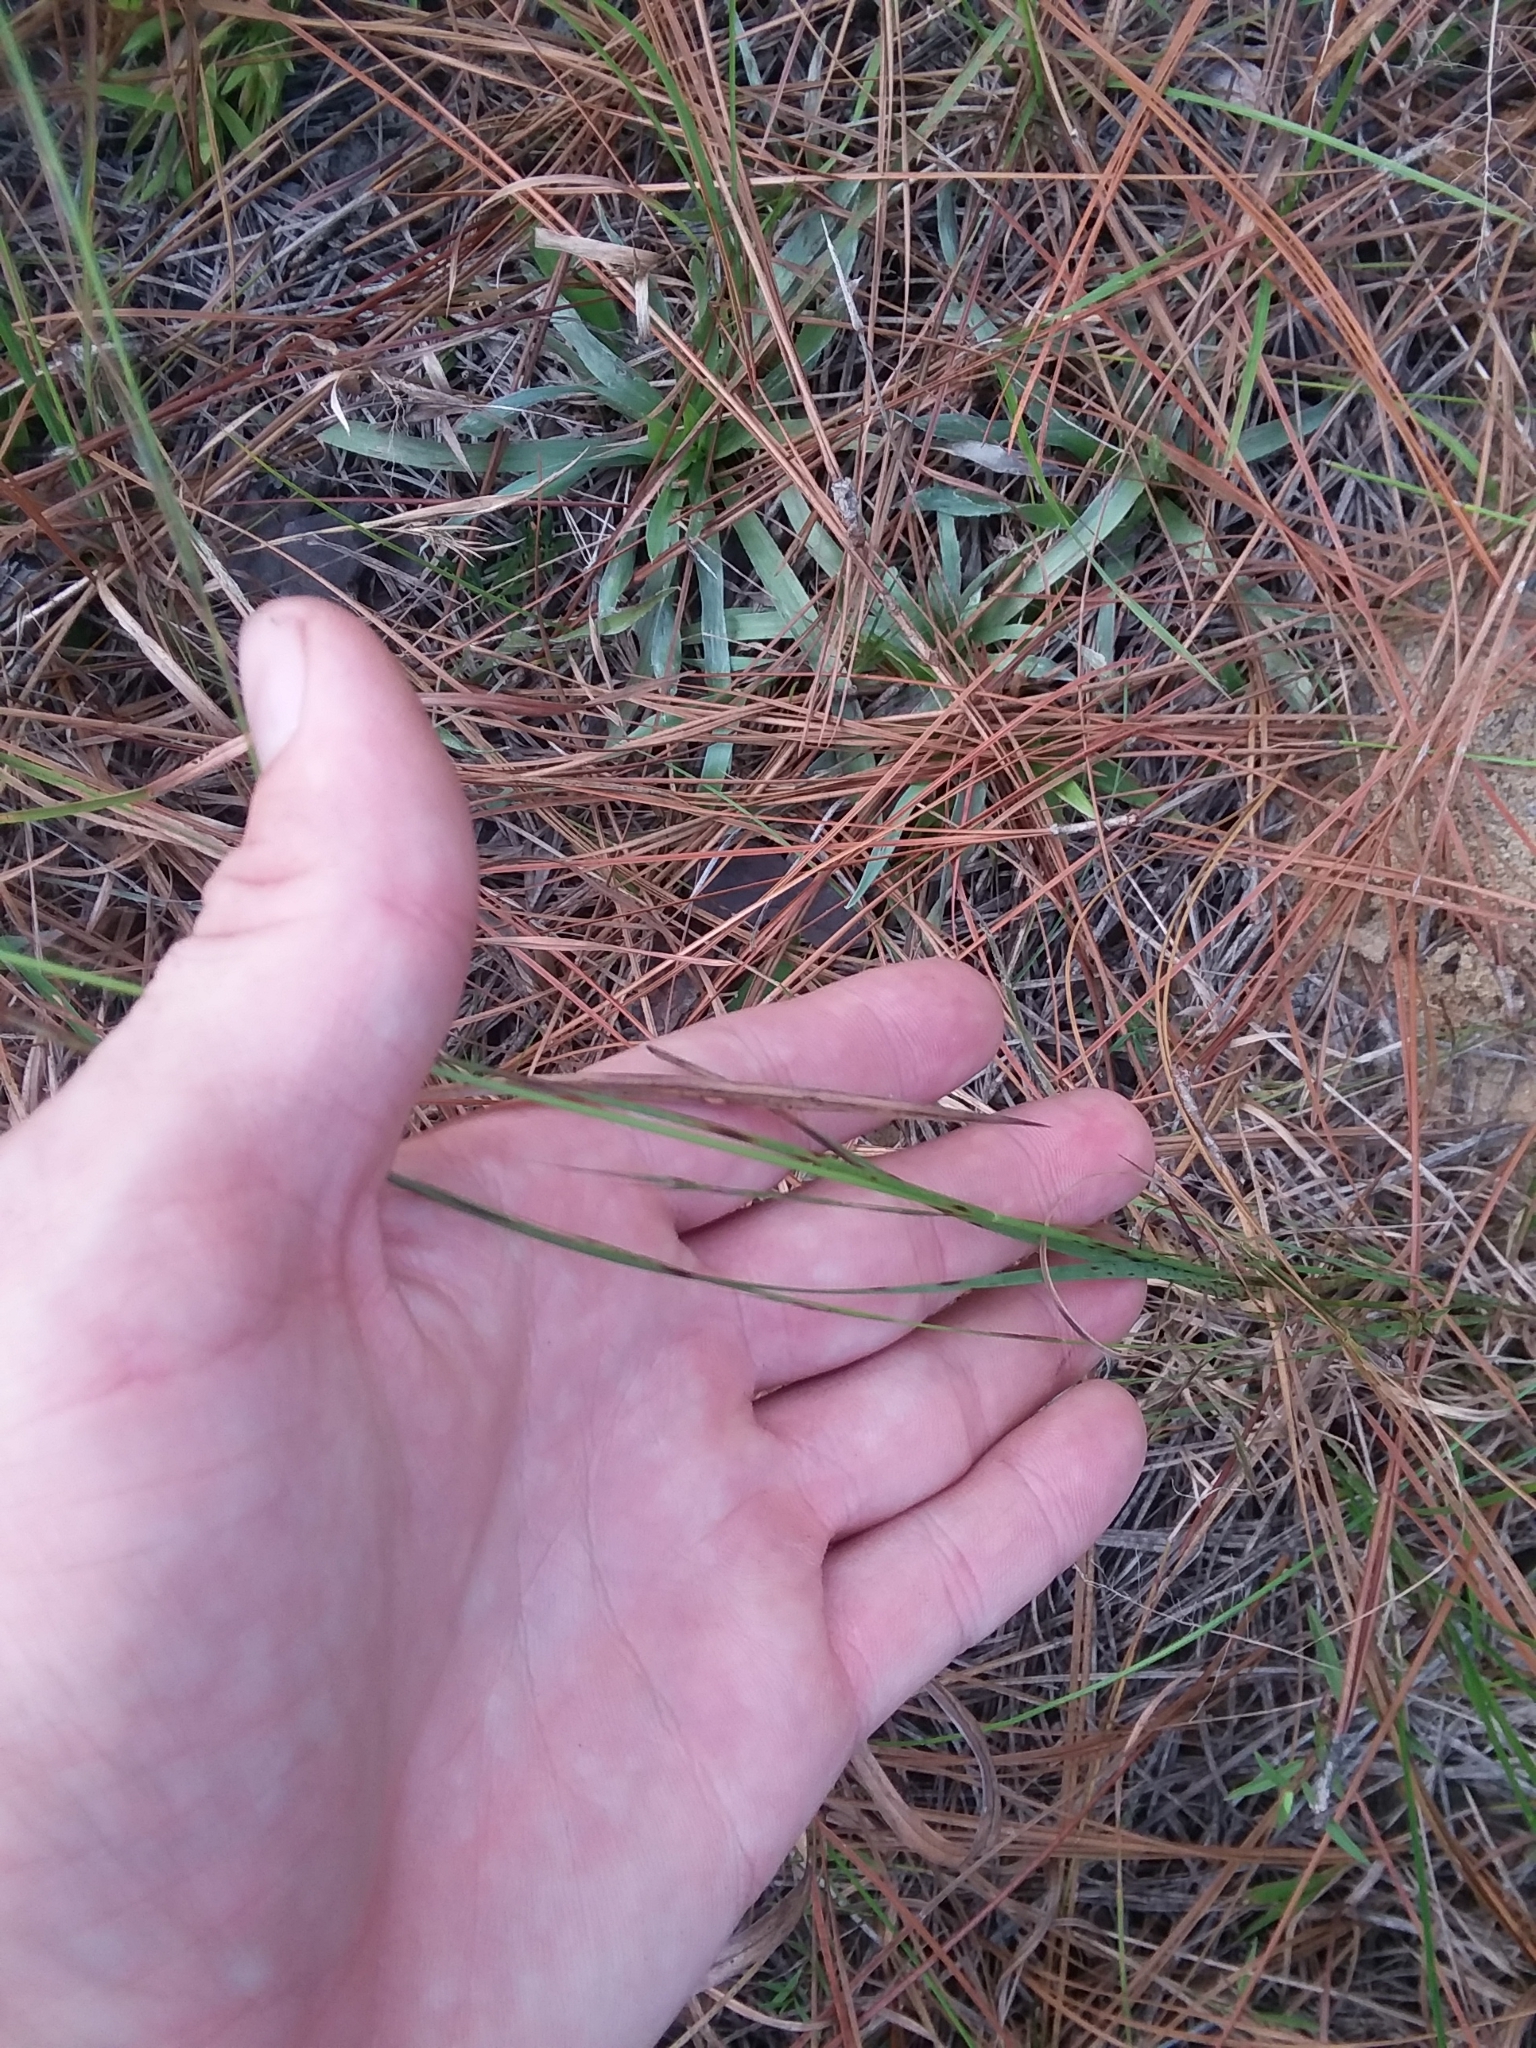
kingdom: Plantae
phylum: Tracheophyta
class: Liliopsida
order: Poales
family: Poaceae
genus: Aristida
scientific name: Aristida purpurascens
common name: Arrow-feather
